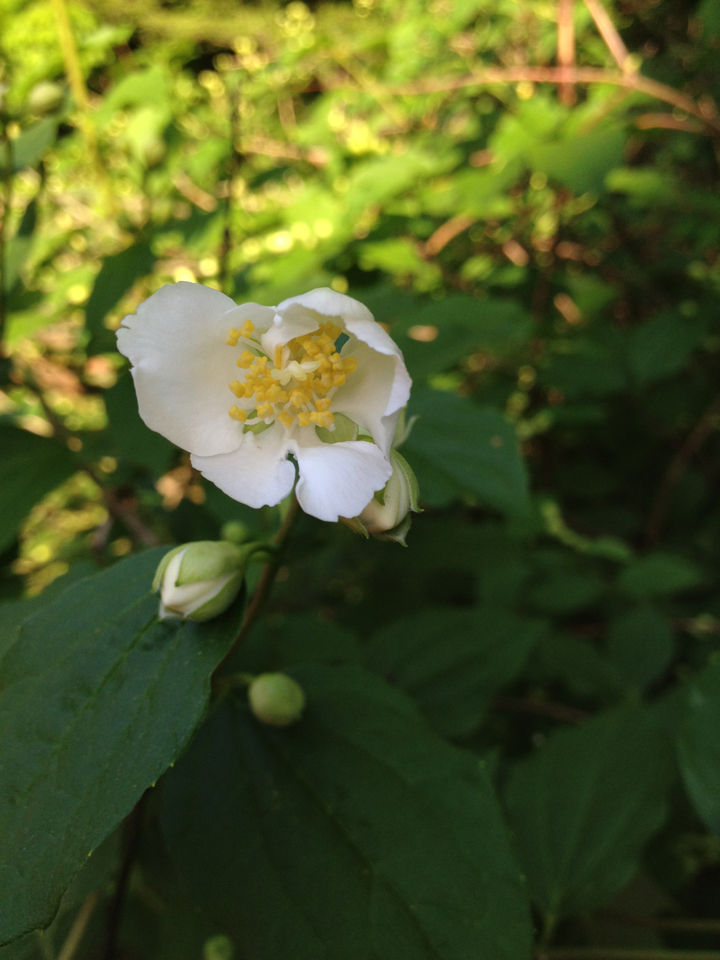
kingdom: Plantae
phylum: Tracheophyta
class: Magnoliopsida
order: Cornales
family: Hydrangeaceae
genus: Philadelphus
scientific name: Philadelphus
